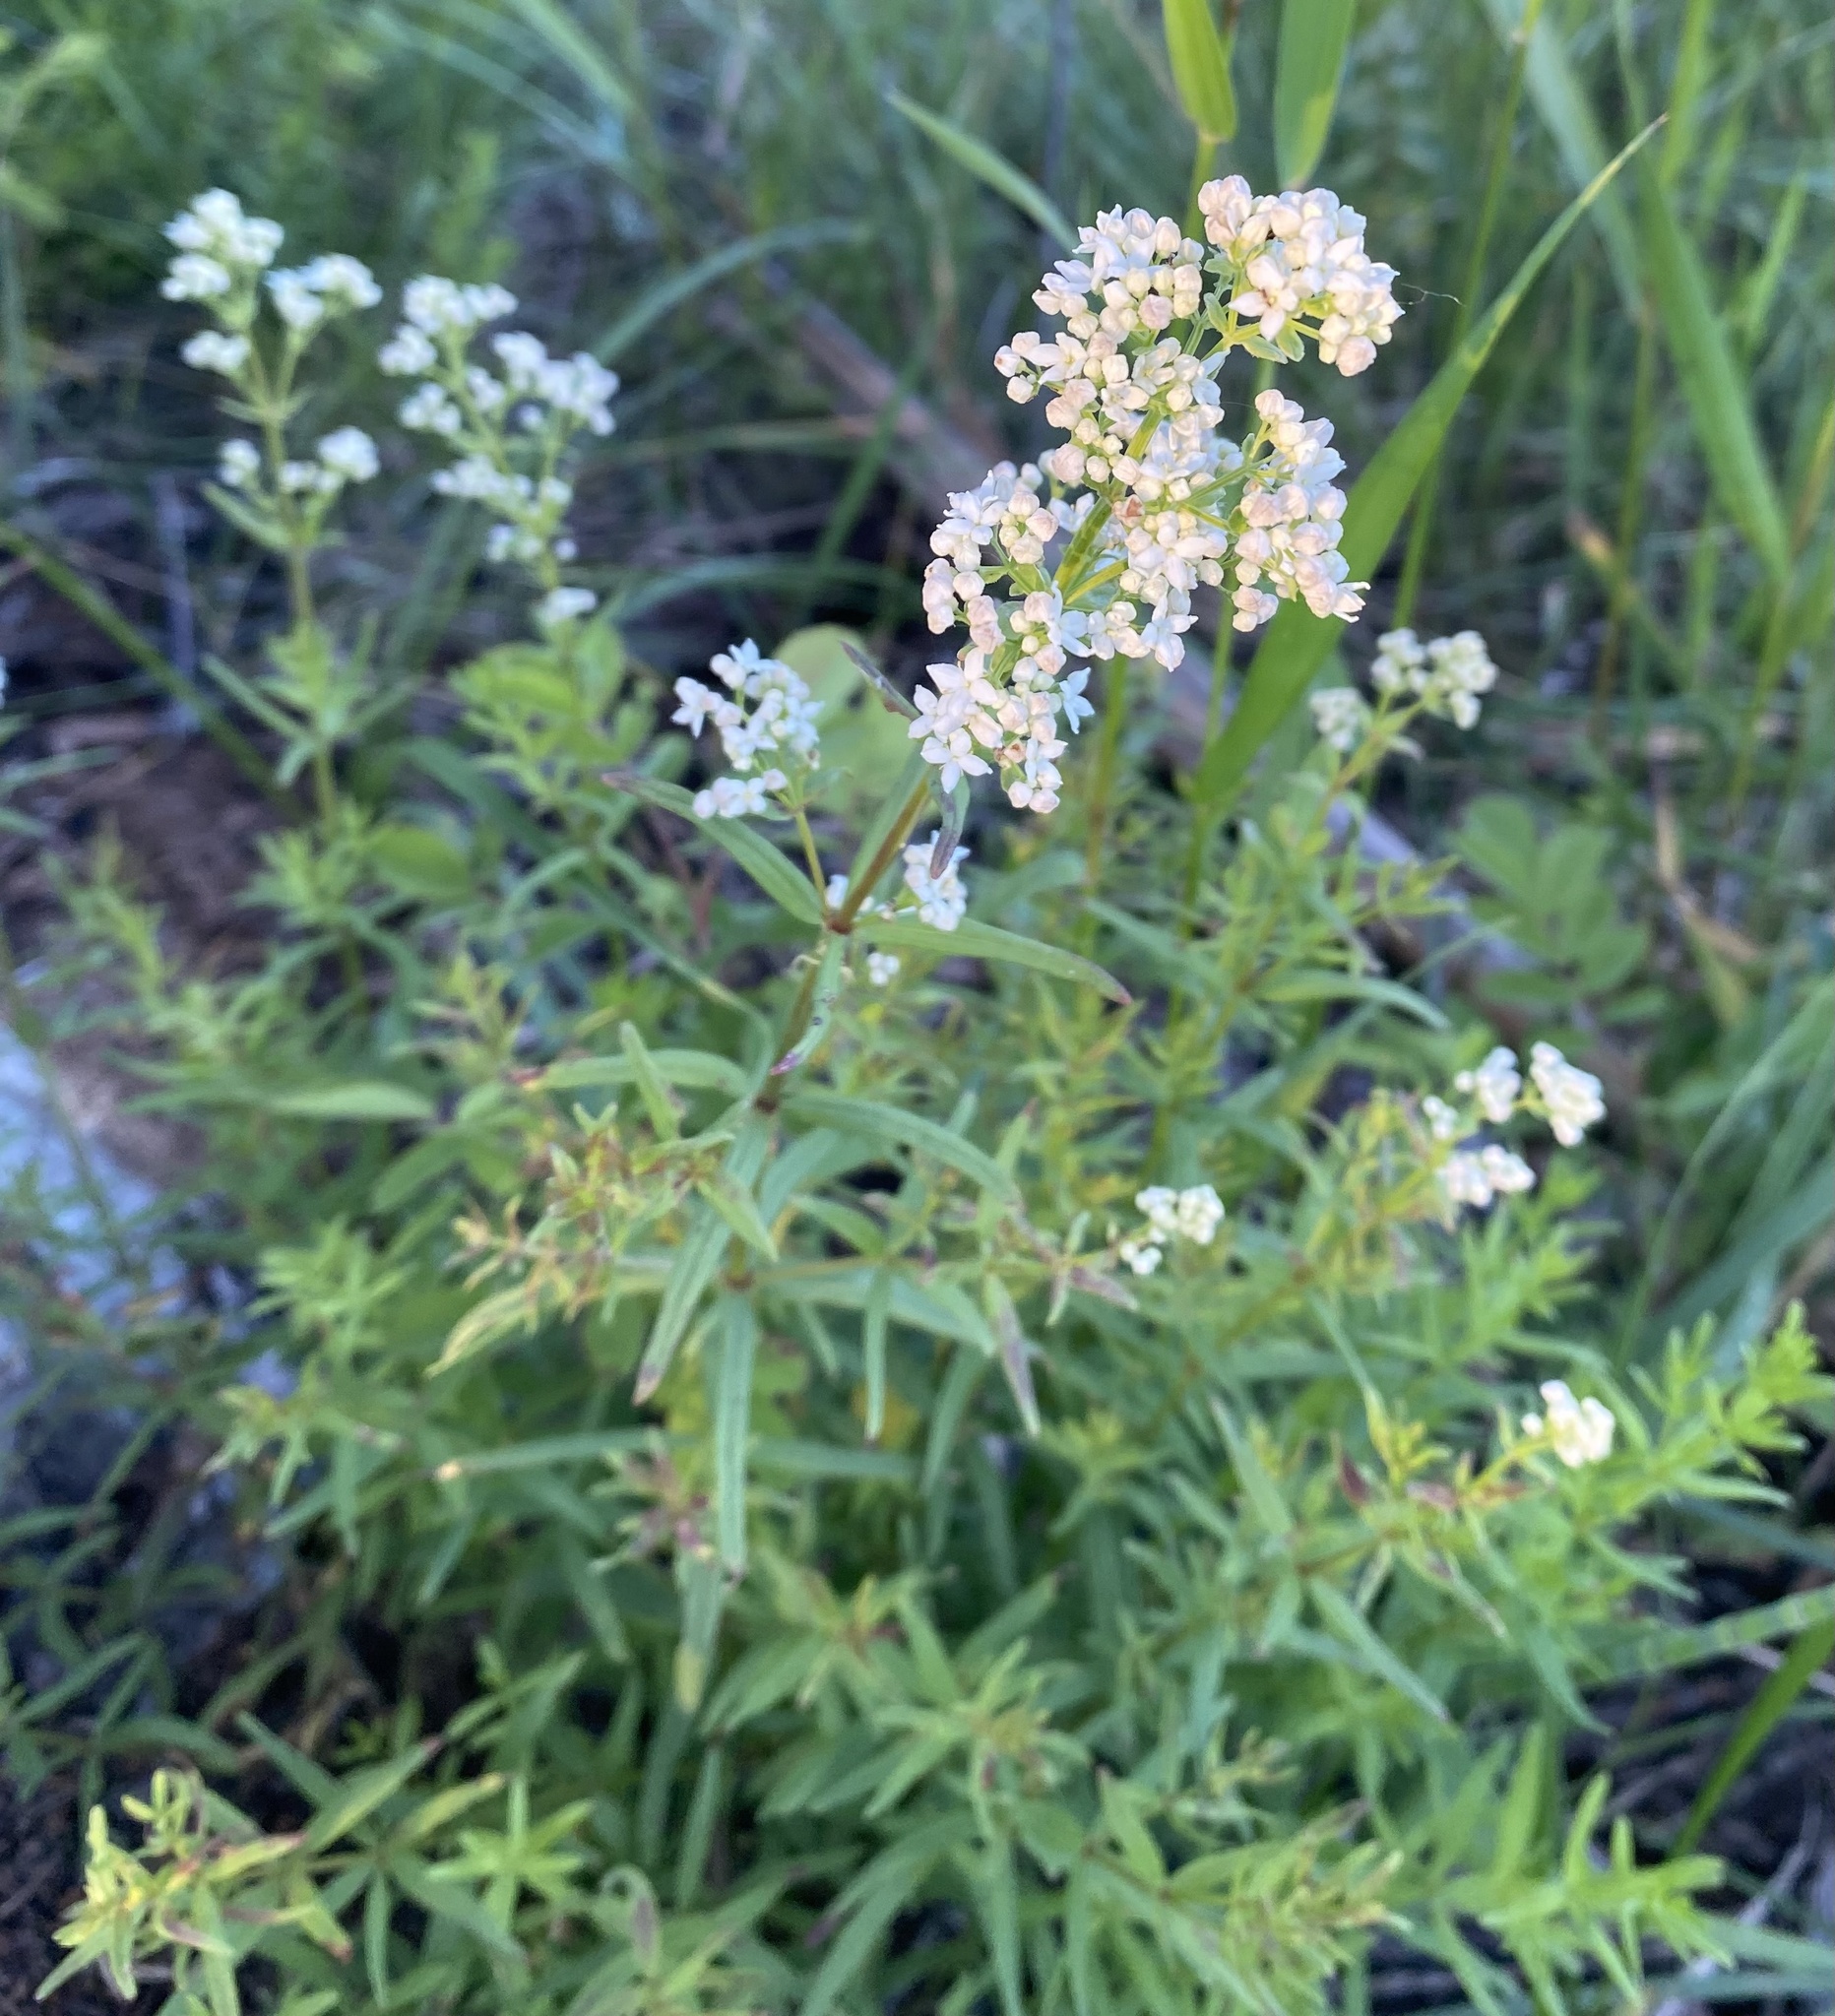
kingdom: Plantae
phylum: Tracheophyta
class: Magnoliopsida
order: Gentianales
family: Rubiaceae
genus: Galium
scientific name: Galium boreale
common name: Northern bedstraw
